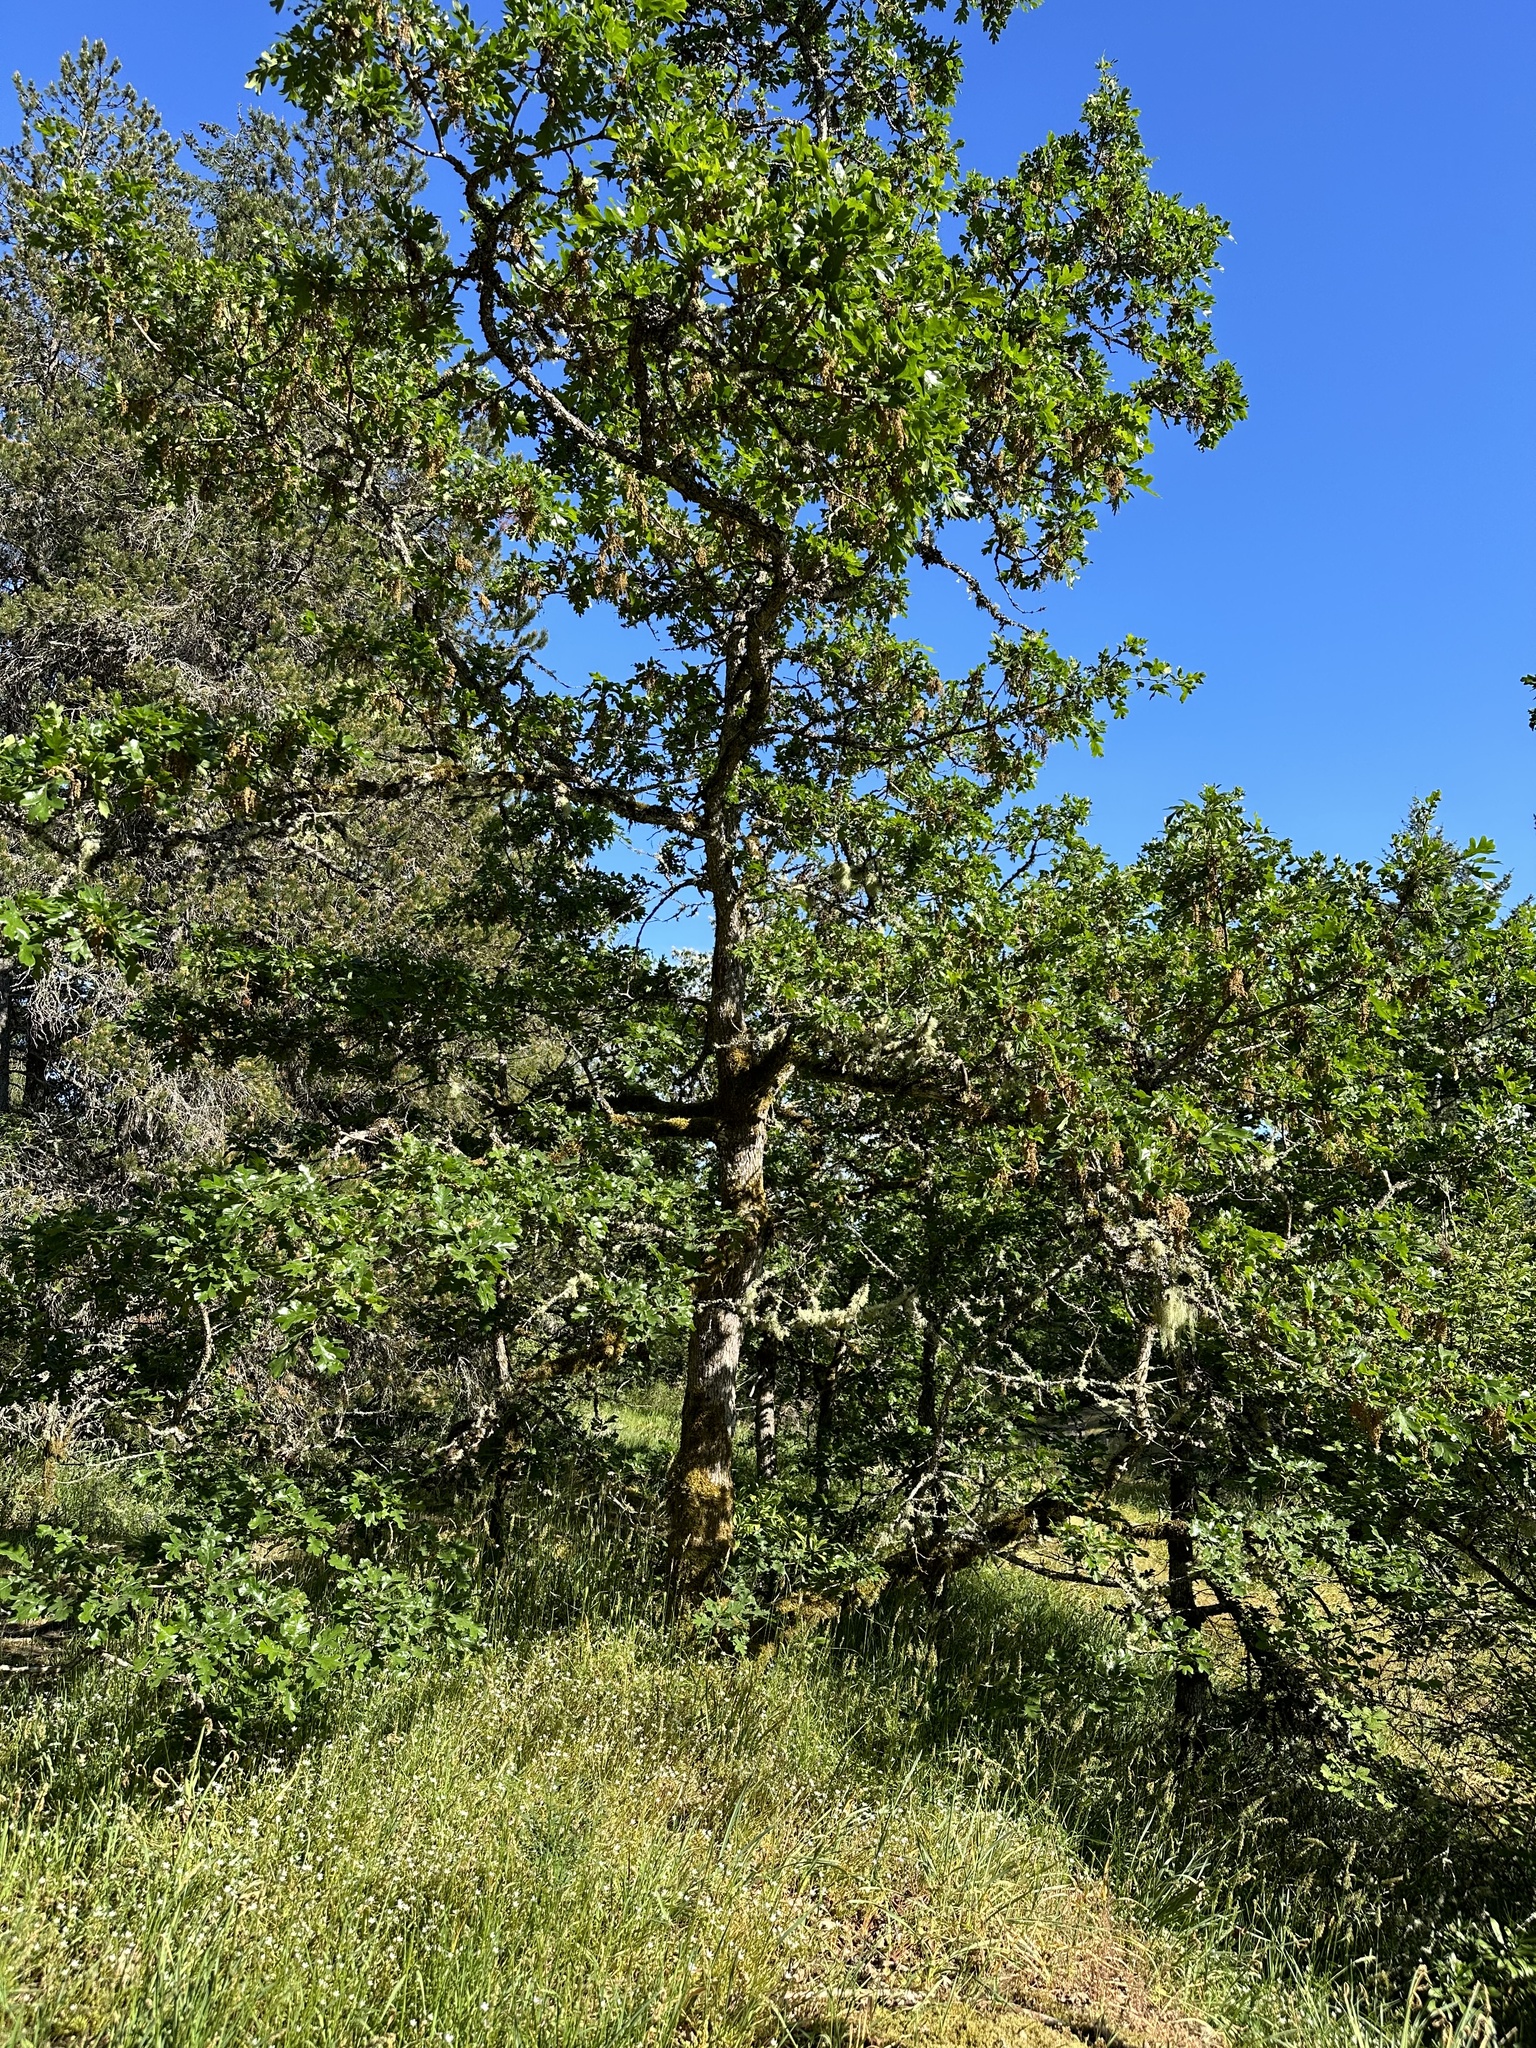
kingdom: Plantae
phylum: Tracheophyta
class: Magnoliopsida
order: Fagales
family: Fagaceae
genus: Quercus
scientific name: Quercus garryana
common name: Garry oak
